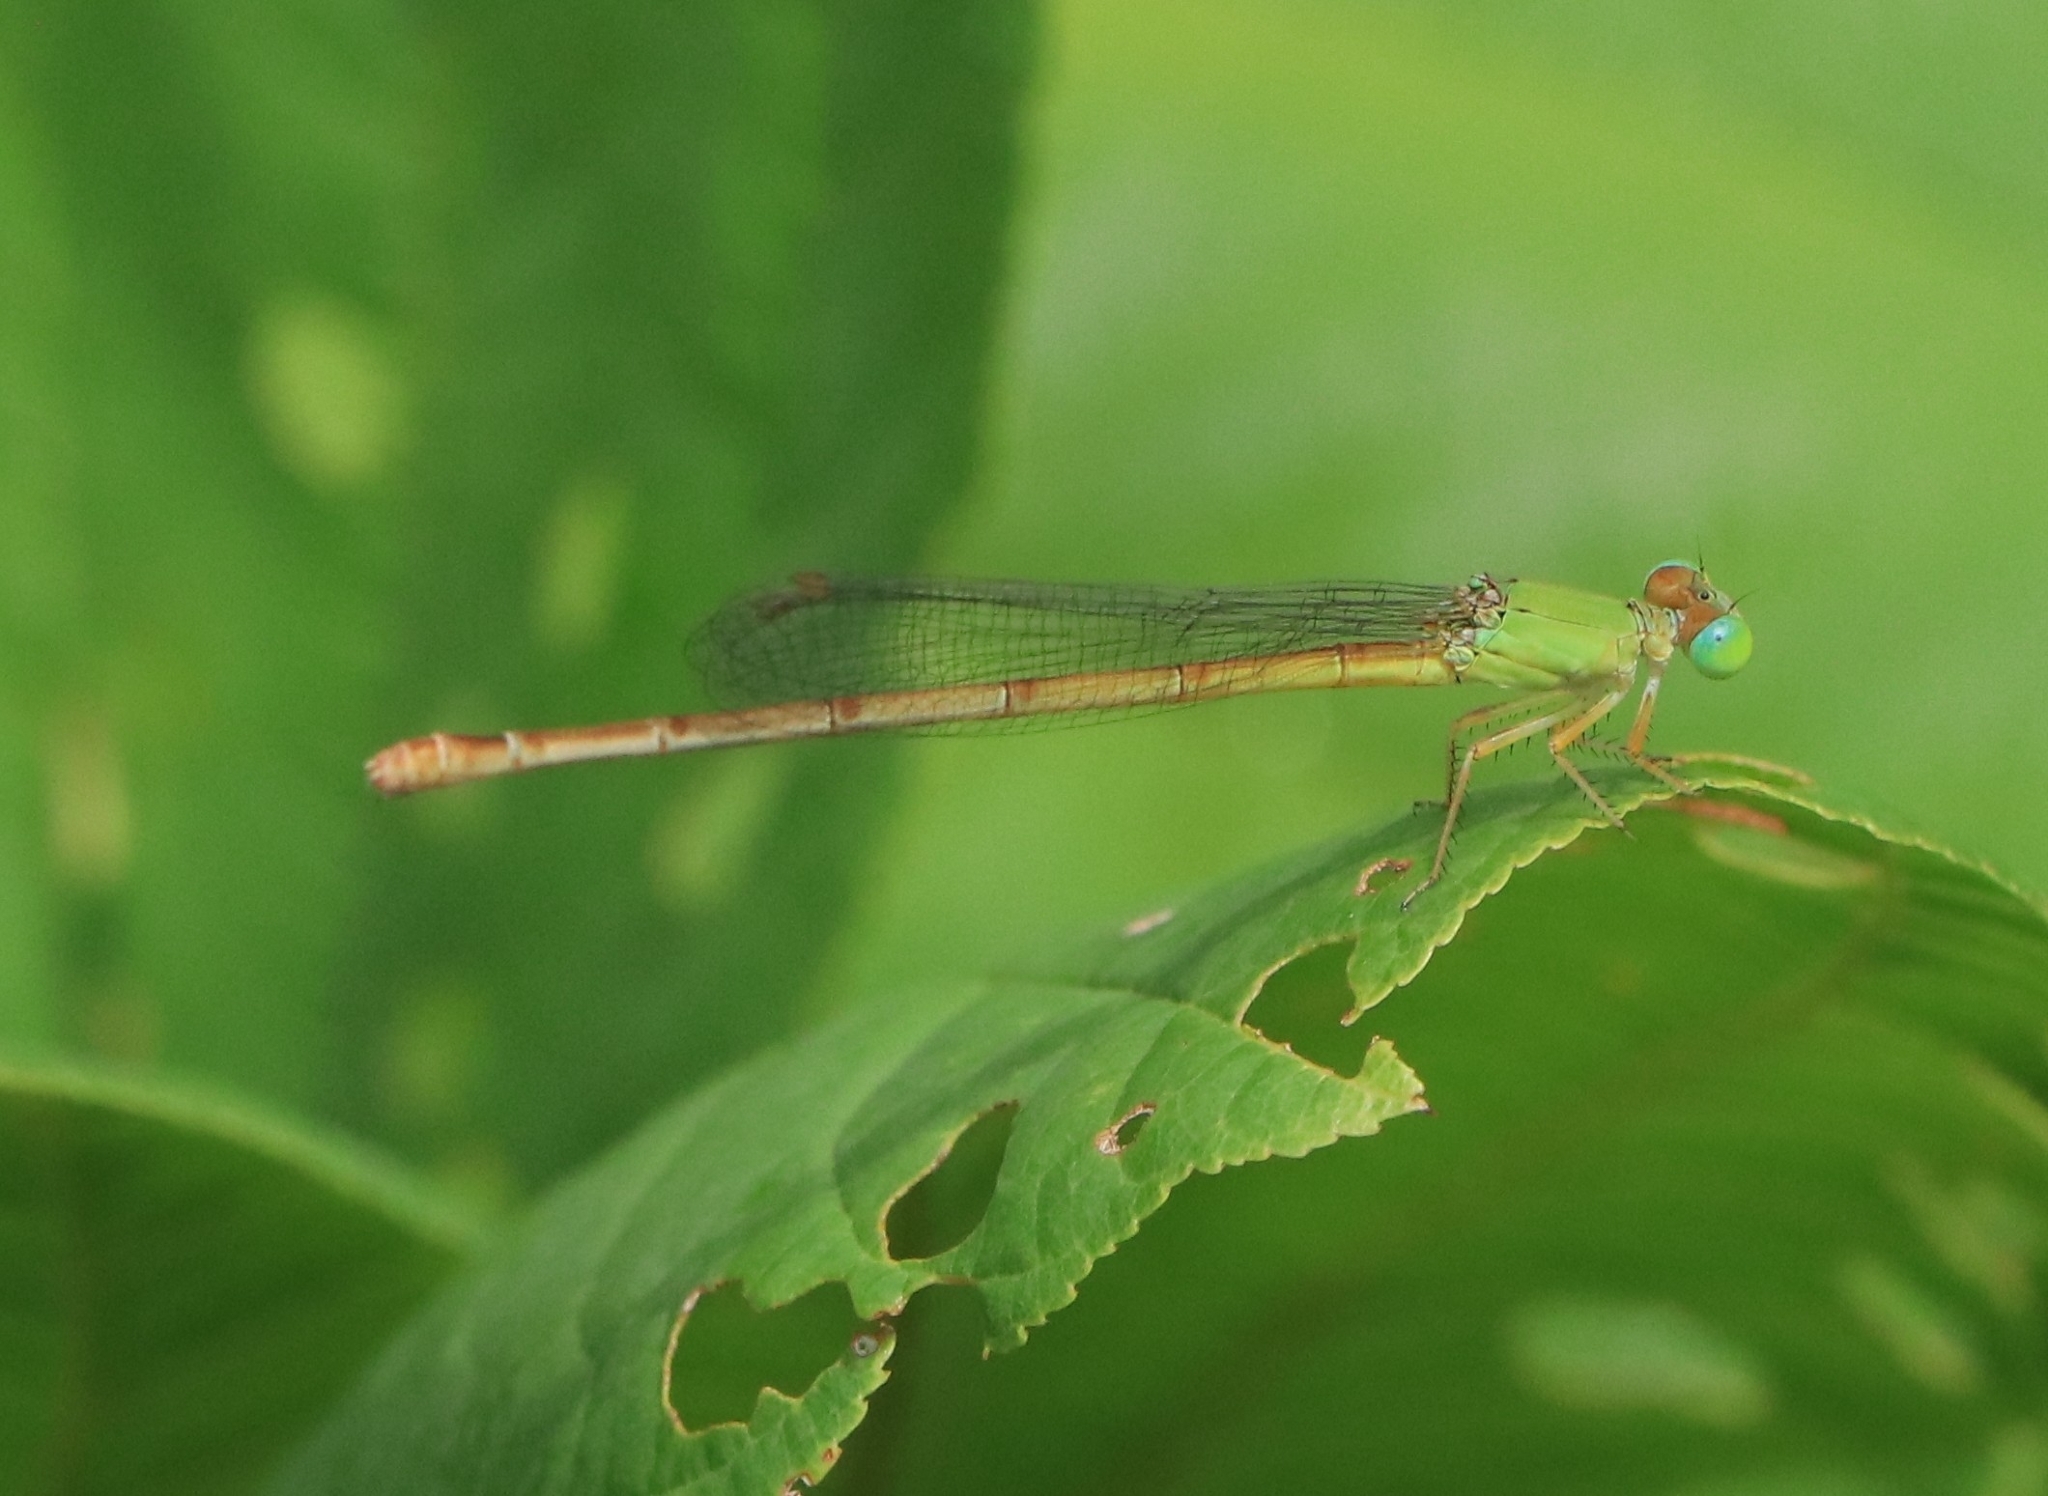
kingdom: Animalia
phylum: Arthropoda
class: Insecta
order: Odonata
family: Coenagrionidae
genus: Ceriagrion
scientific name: Ceriagrion coromandelianum
